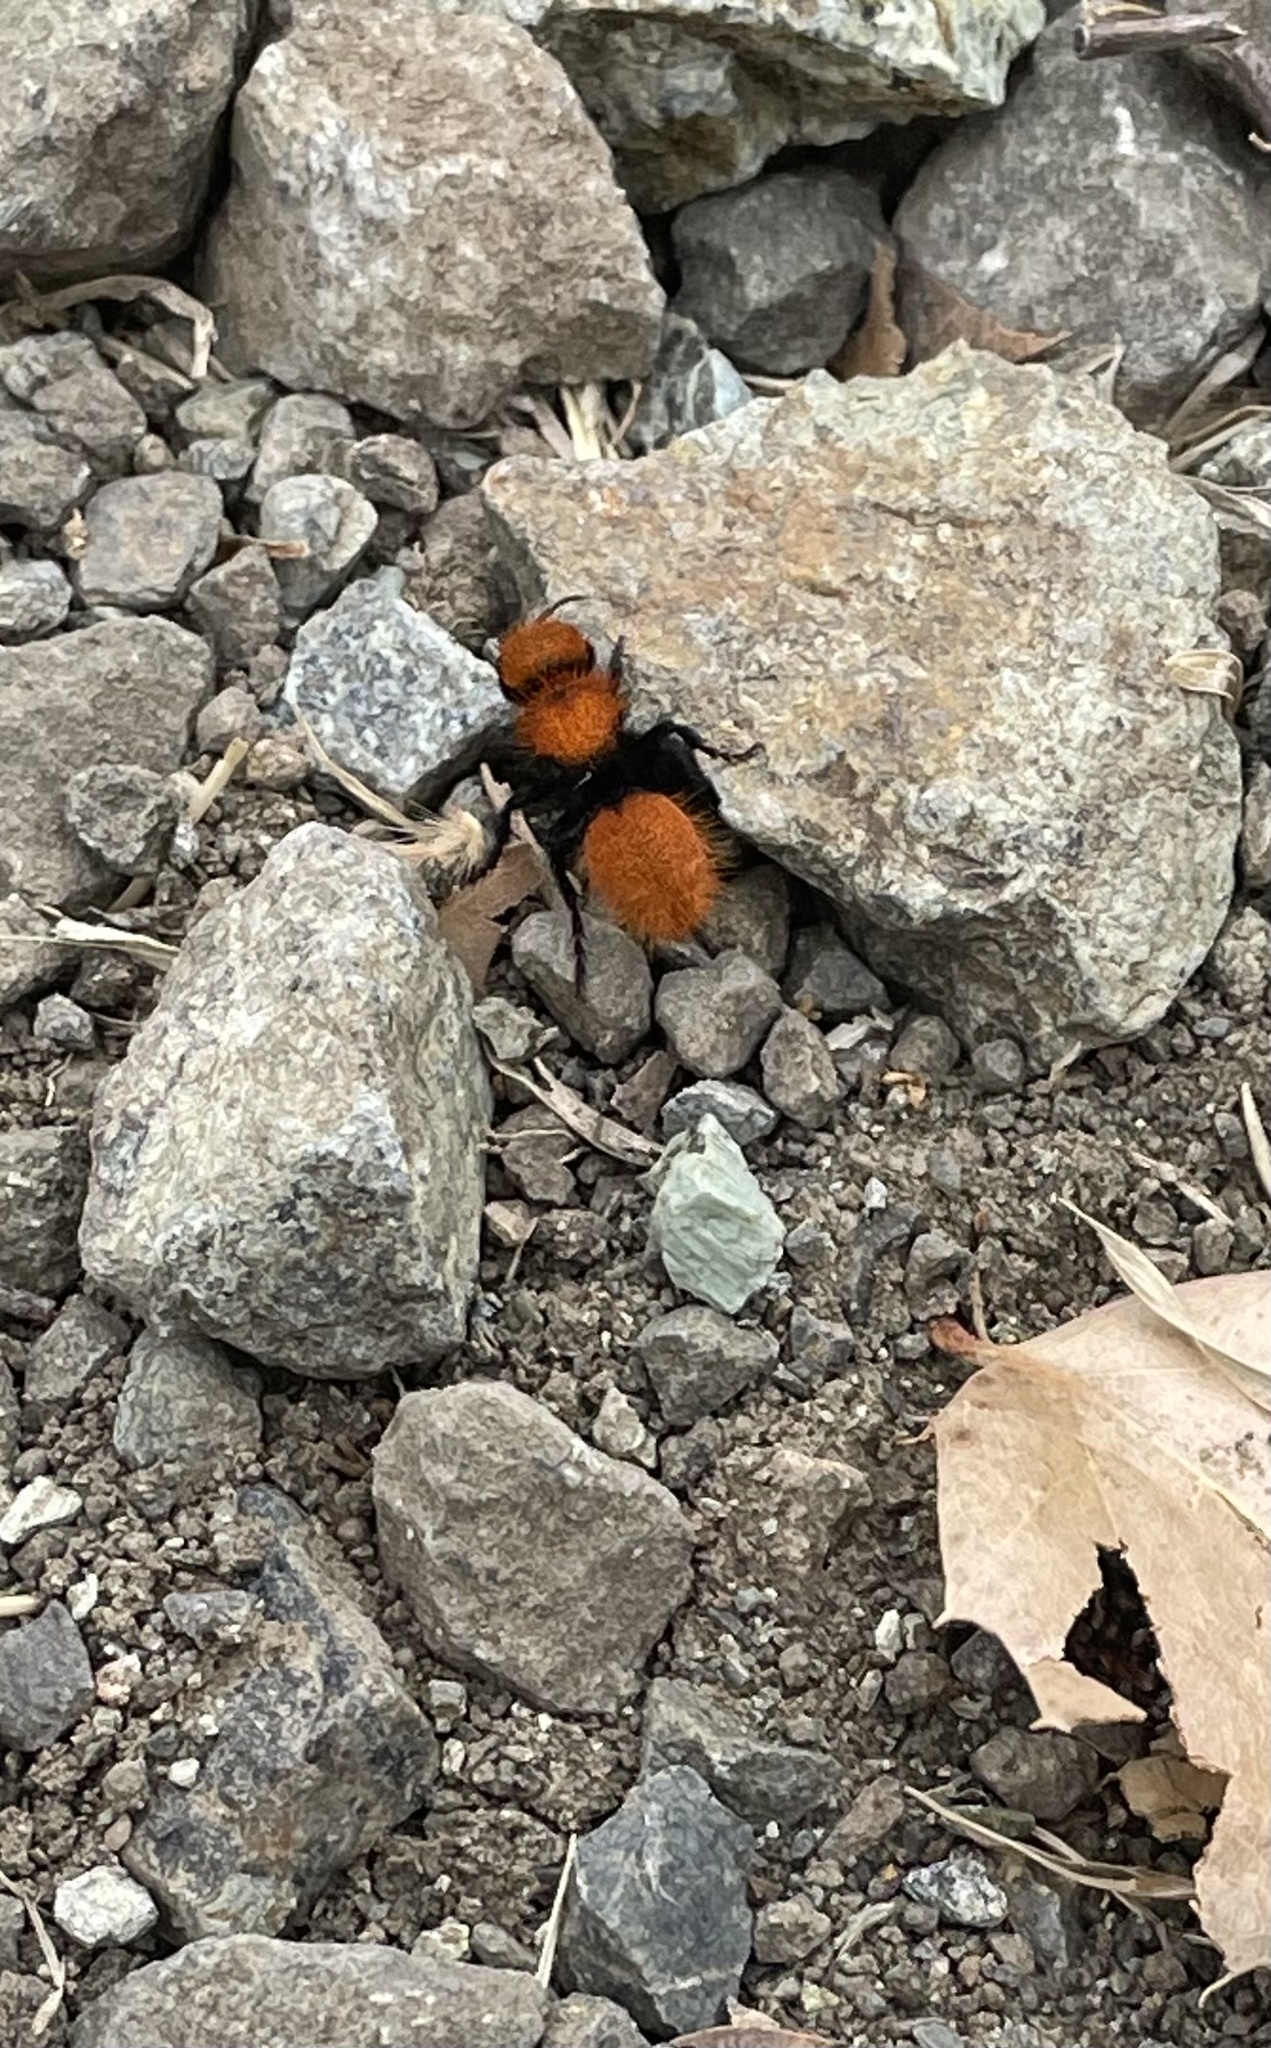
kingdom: Animalia
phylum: Arthropoda
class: Insecta
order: Hymenoptera
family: Mutillidae
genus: Dasymutilla
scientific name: Dasymutilla
